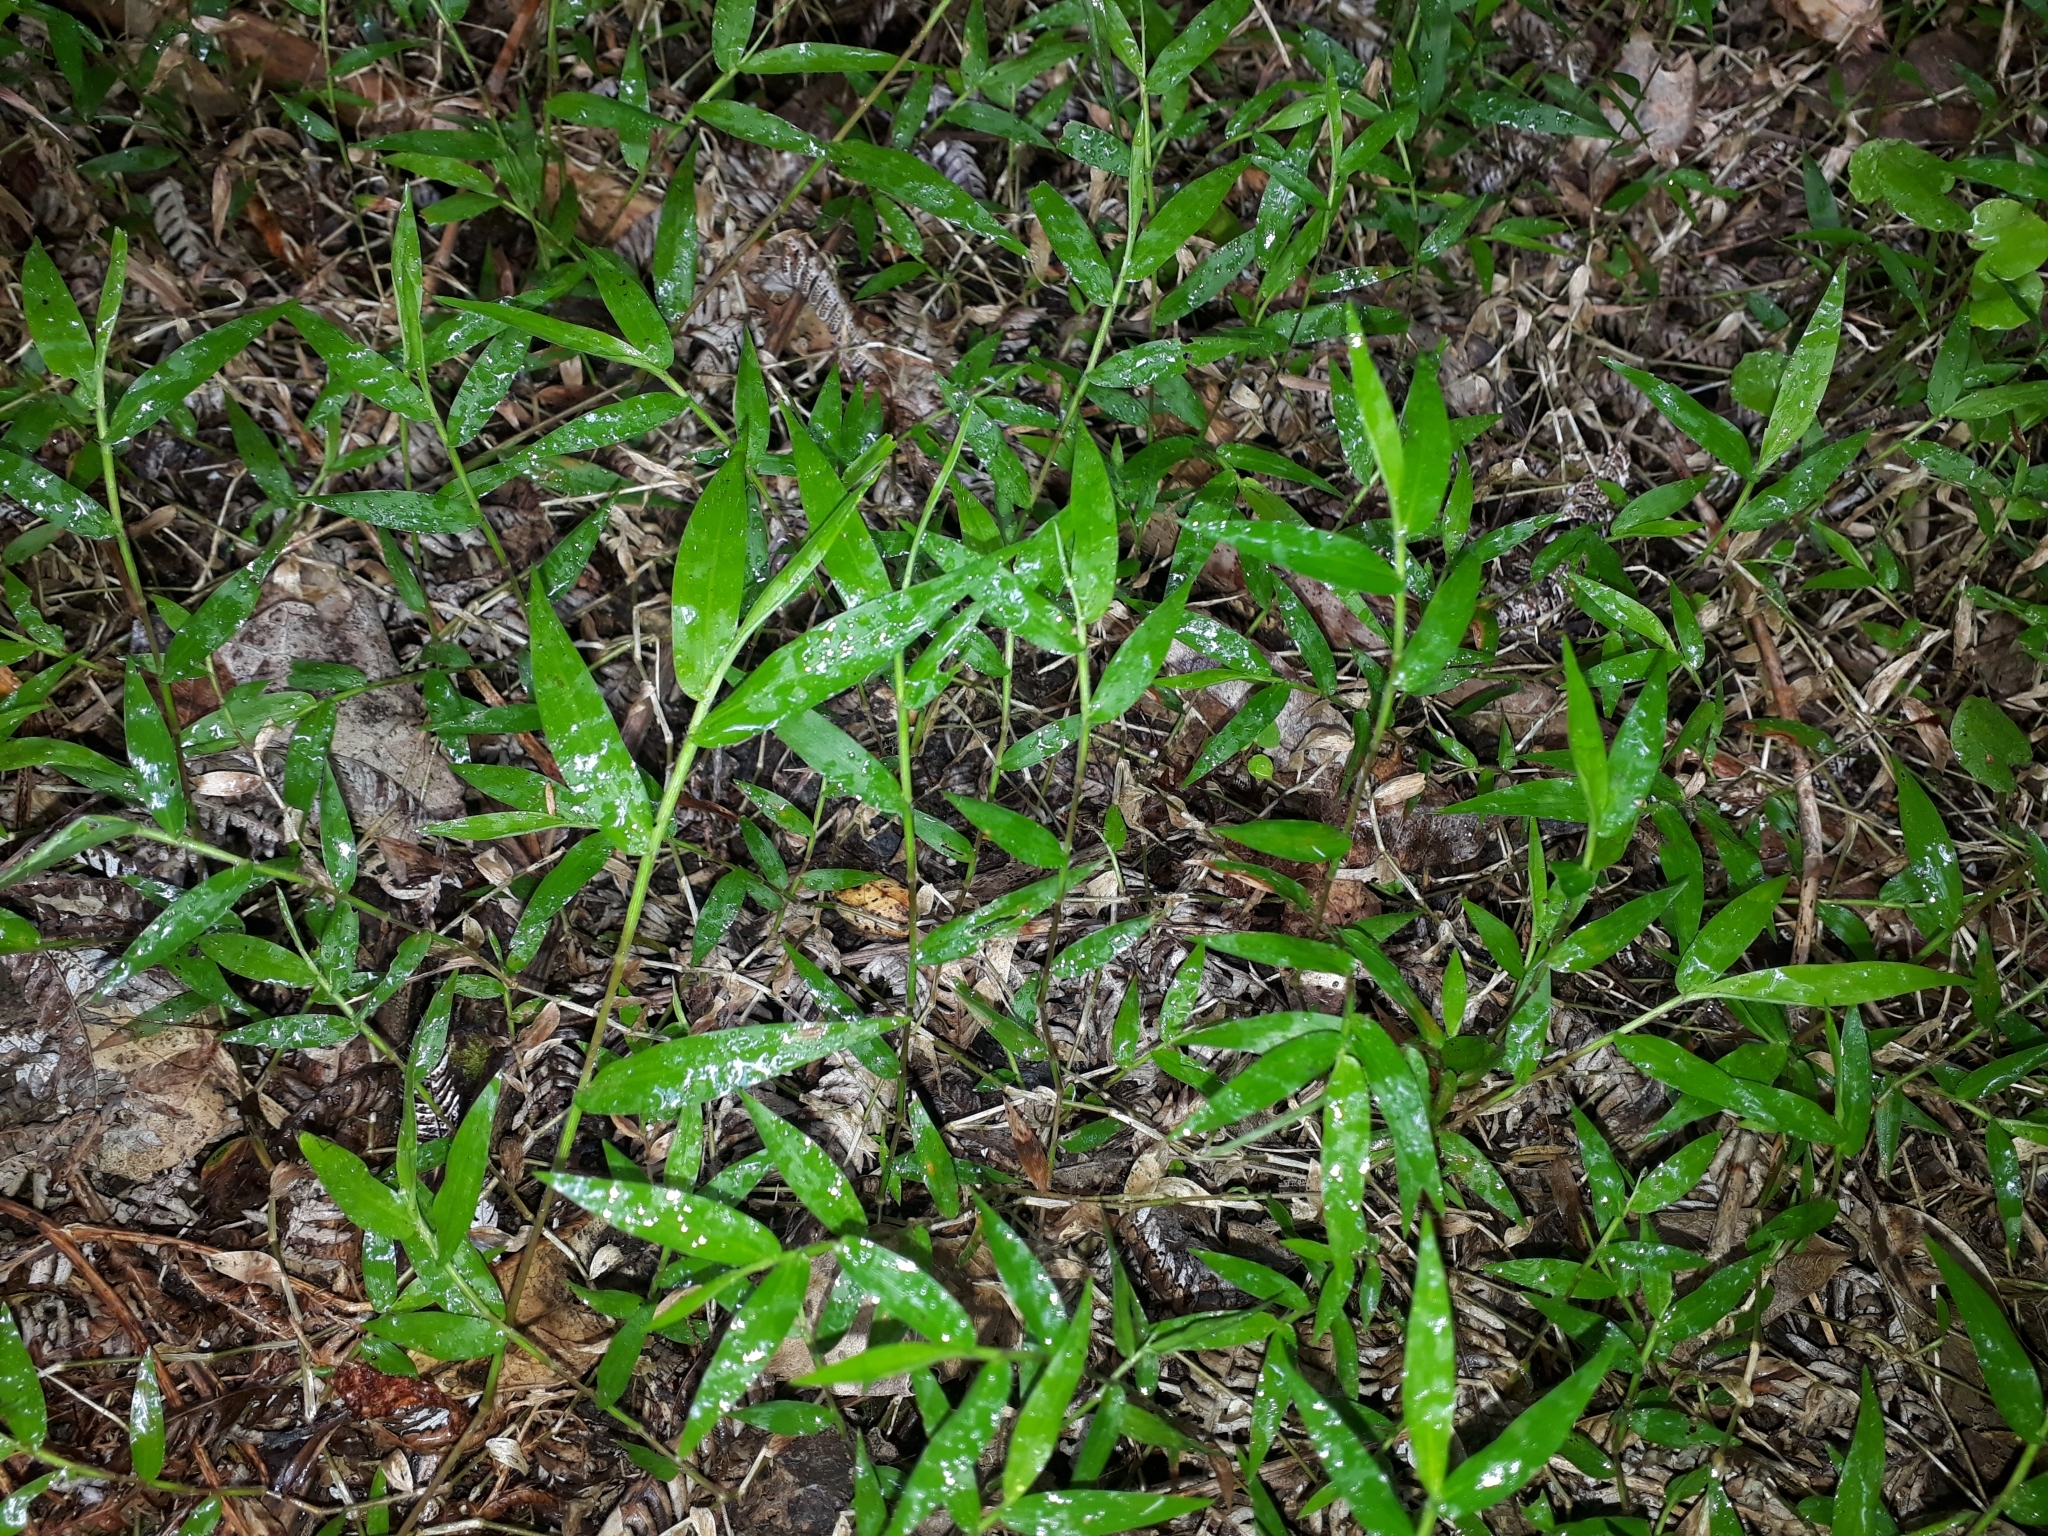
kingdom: Plantae
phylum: Tracheophyta
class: Liliopsida
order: Poales
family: Poaceae
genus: Oplismenus
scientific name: Oplismenus hirtellus
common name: Basketgrass
